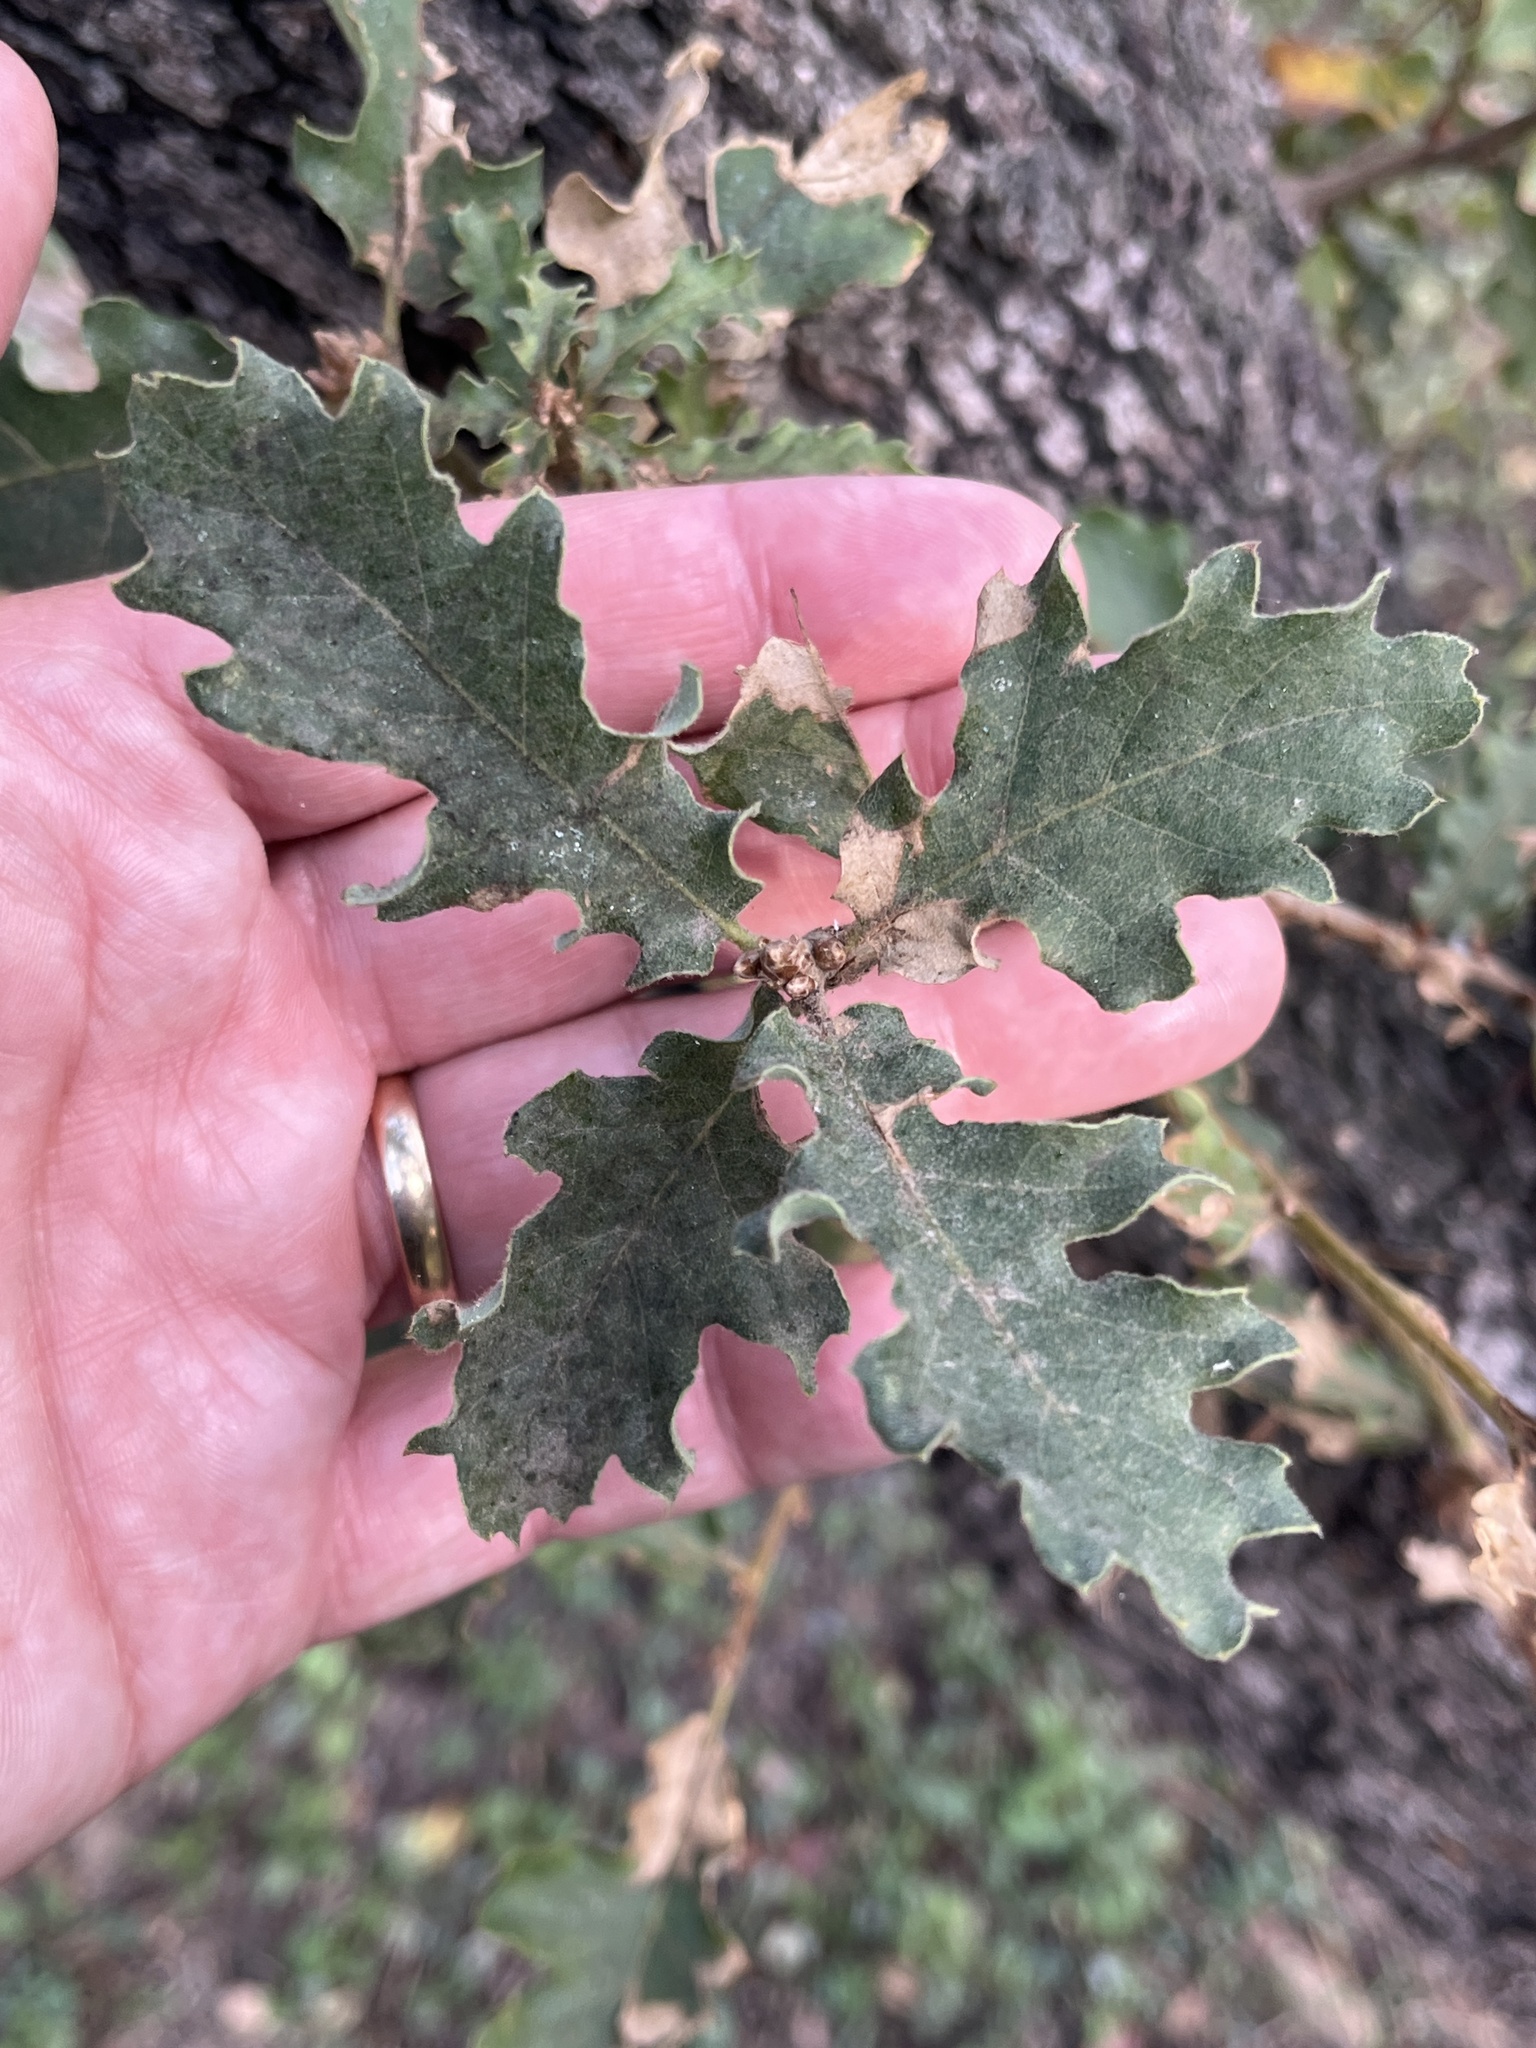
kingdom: Plantae
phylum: Tracheophyta
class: Magnoliopsida
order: Fagales
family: Fagaceae
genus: Quercus
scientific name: Quercus ithaburensis
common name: Tabor oak
